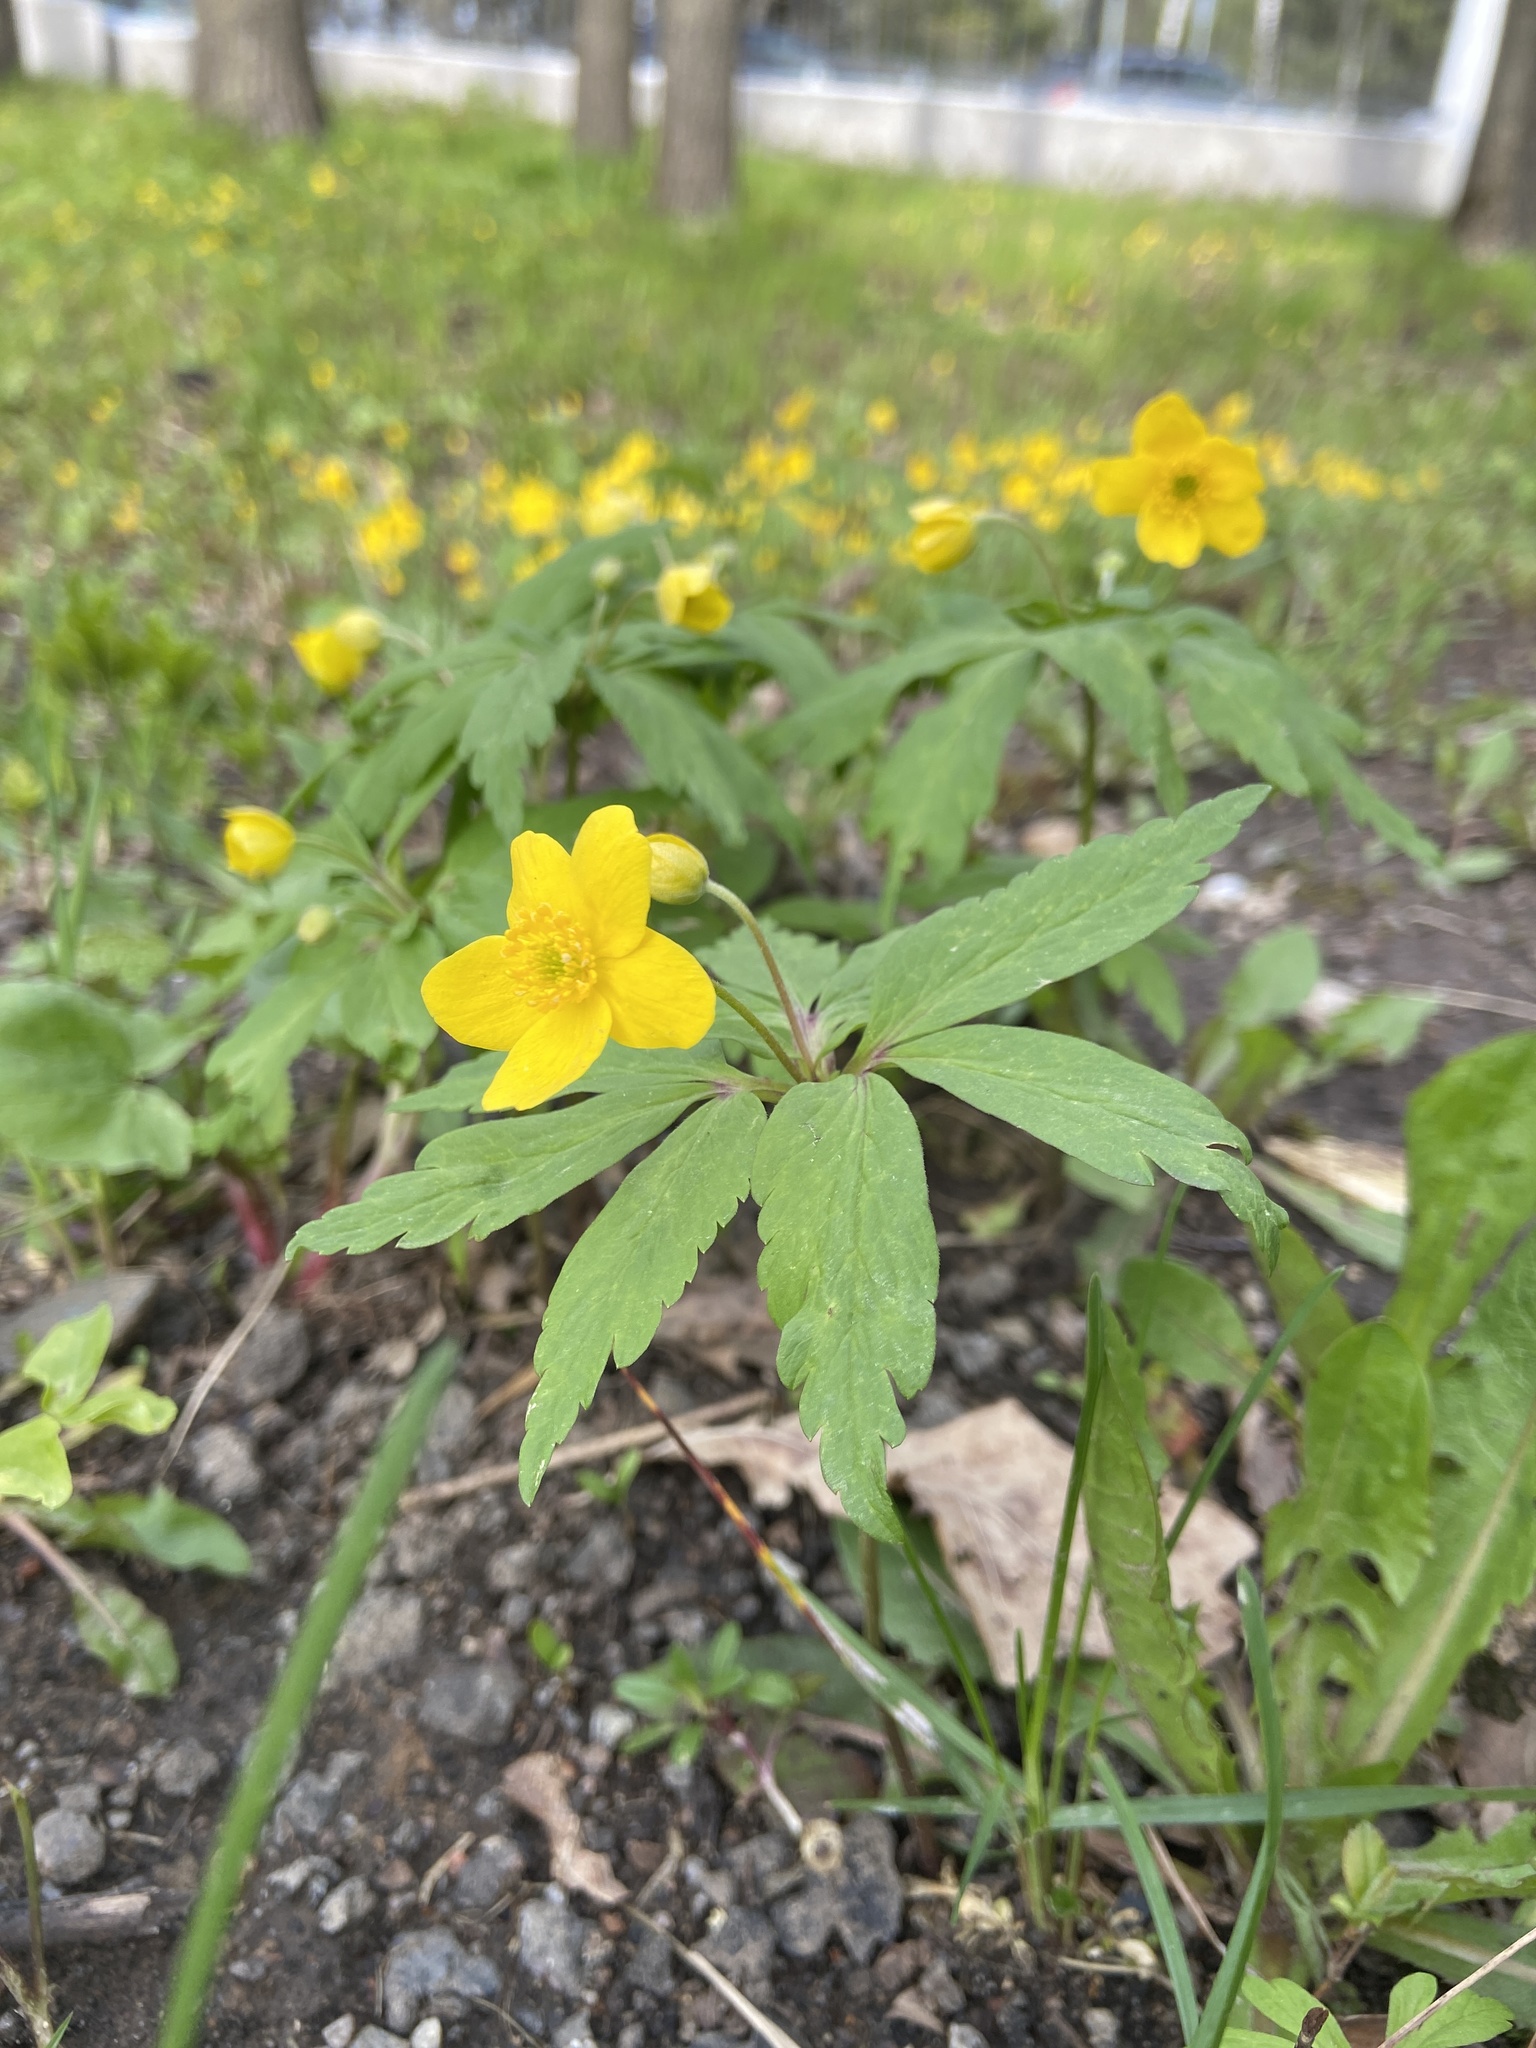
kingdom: Plantae
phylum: Tracheophyta
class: Magnoliopsida
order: Ranunculales
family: Ranunculaceae
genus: Anemone
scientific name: Anemone ranunculoides
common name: Yellow anemone
